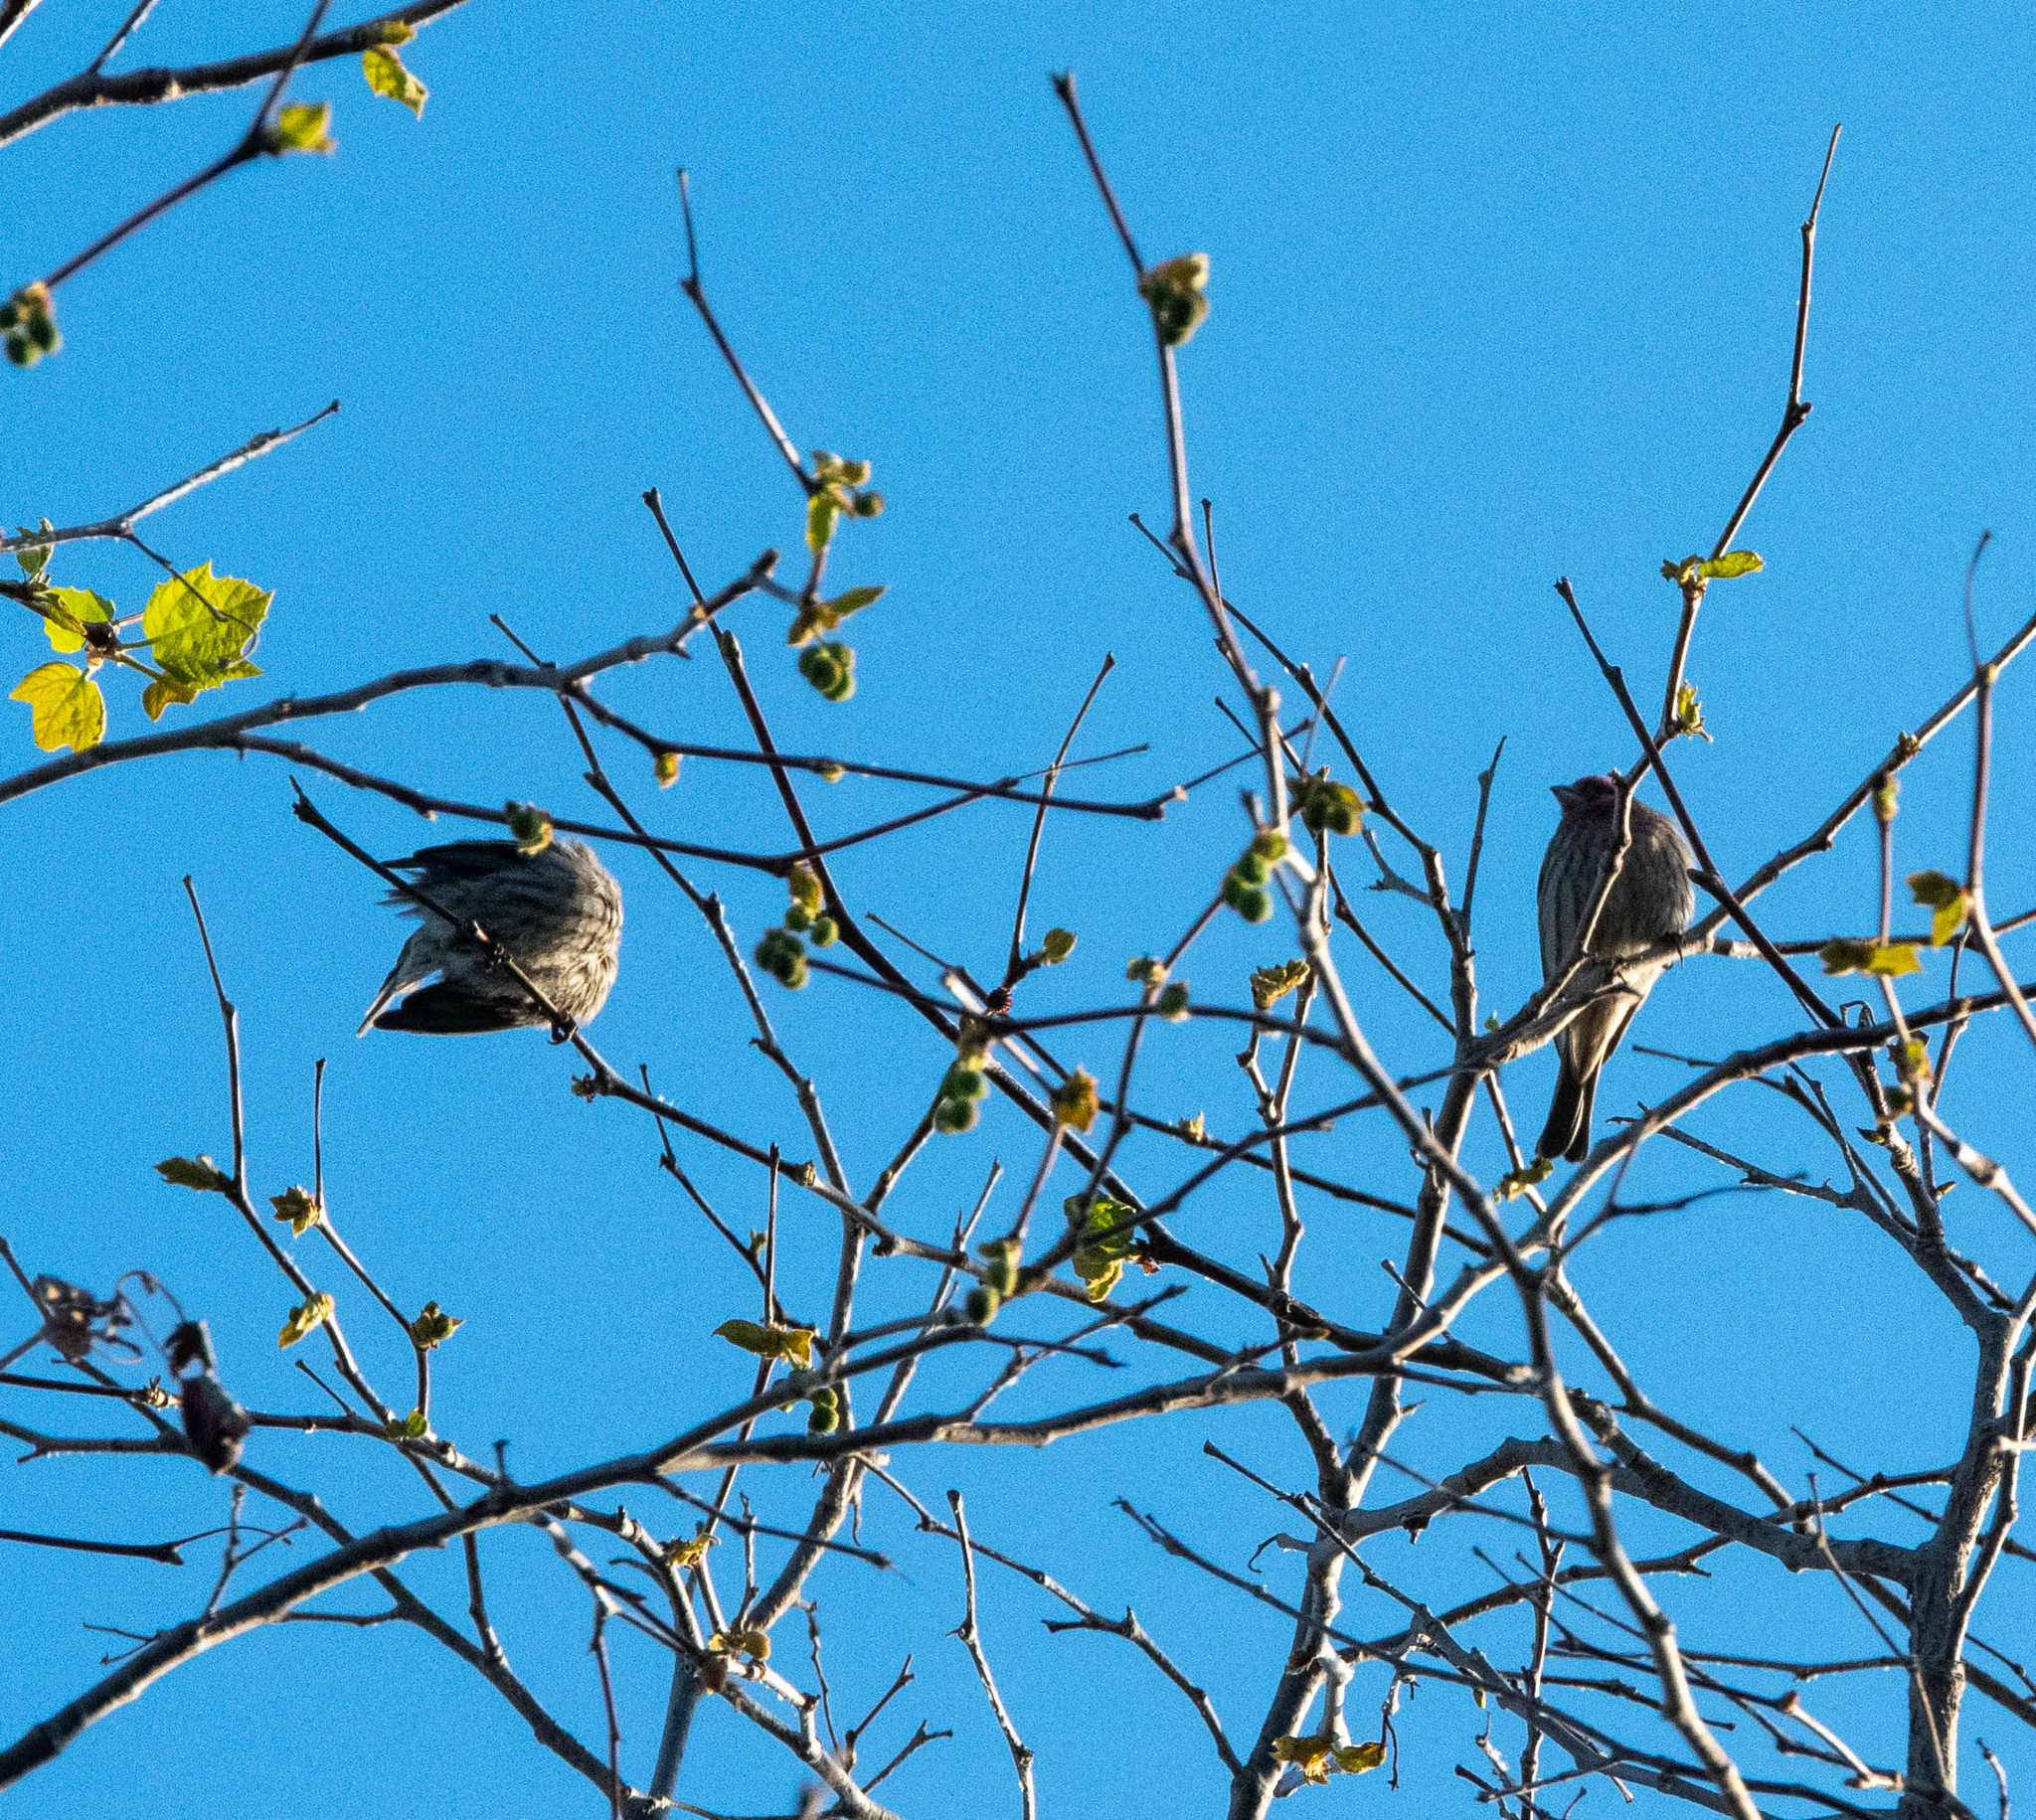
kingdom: Animalia
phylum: Chordata
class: Aves
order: Passeriformes
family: Fringillidae
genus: Haemorhous
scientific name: Haemorhous mexicanus
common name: House finch
